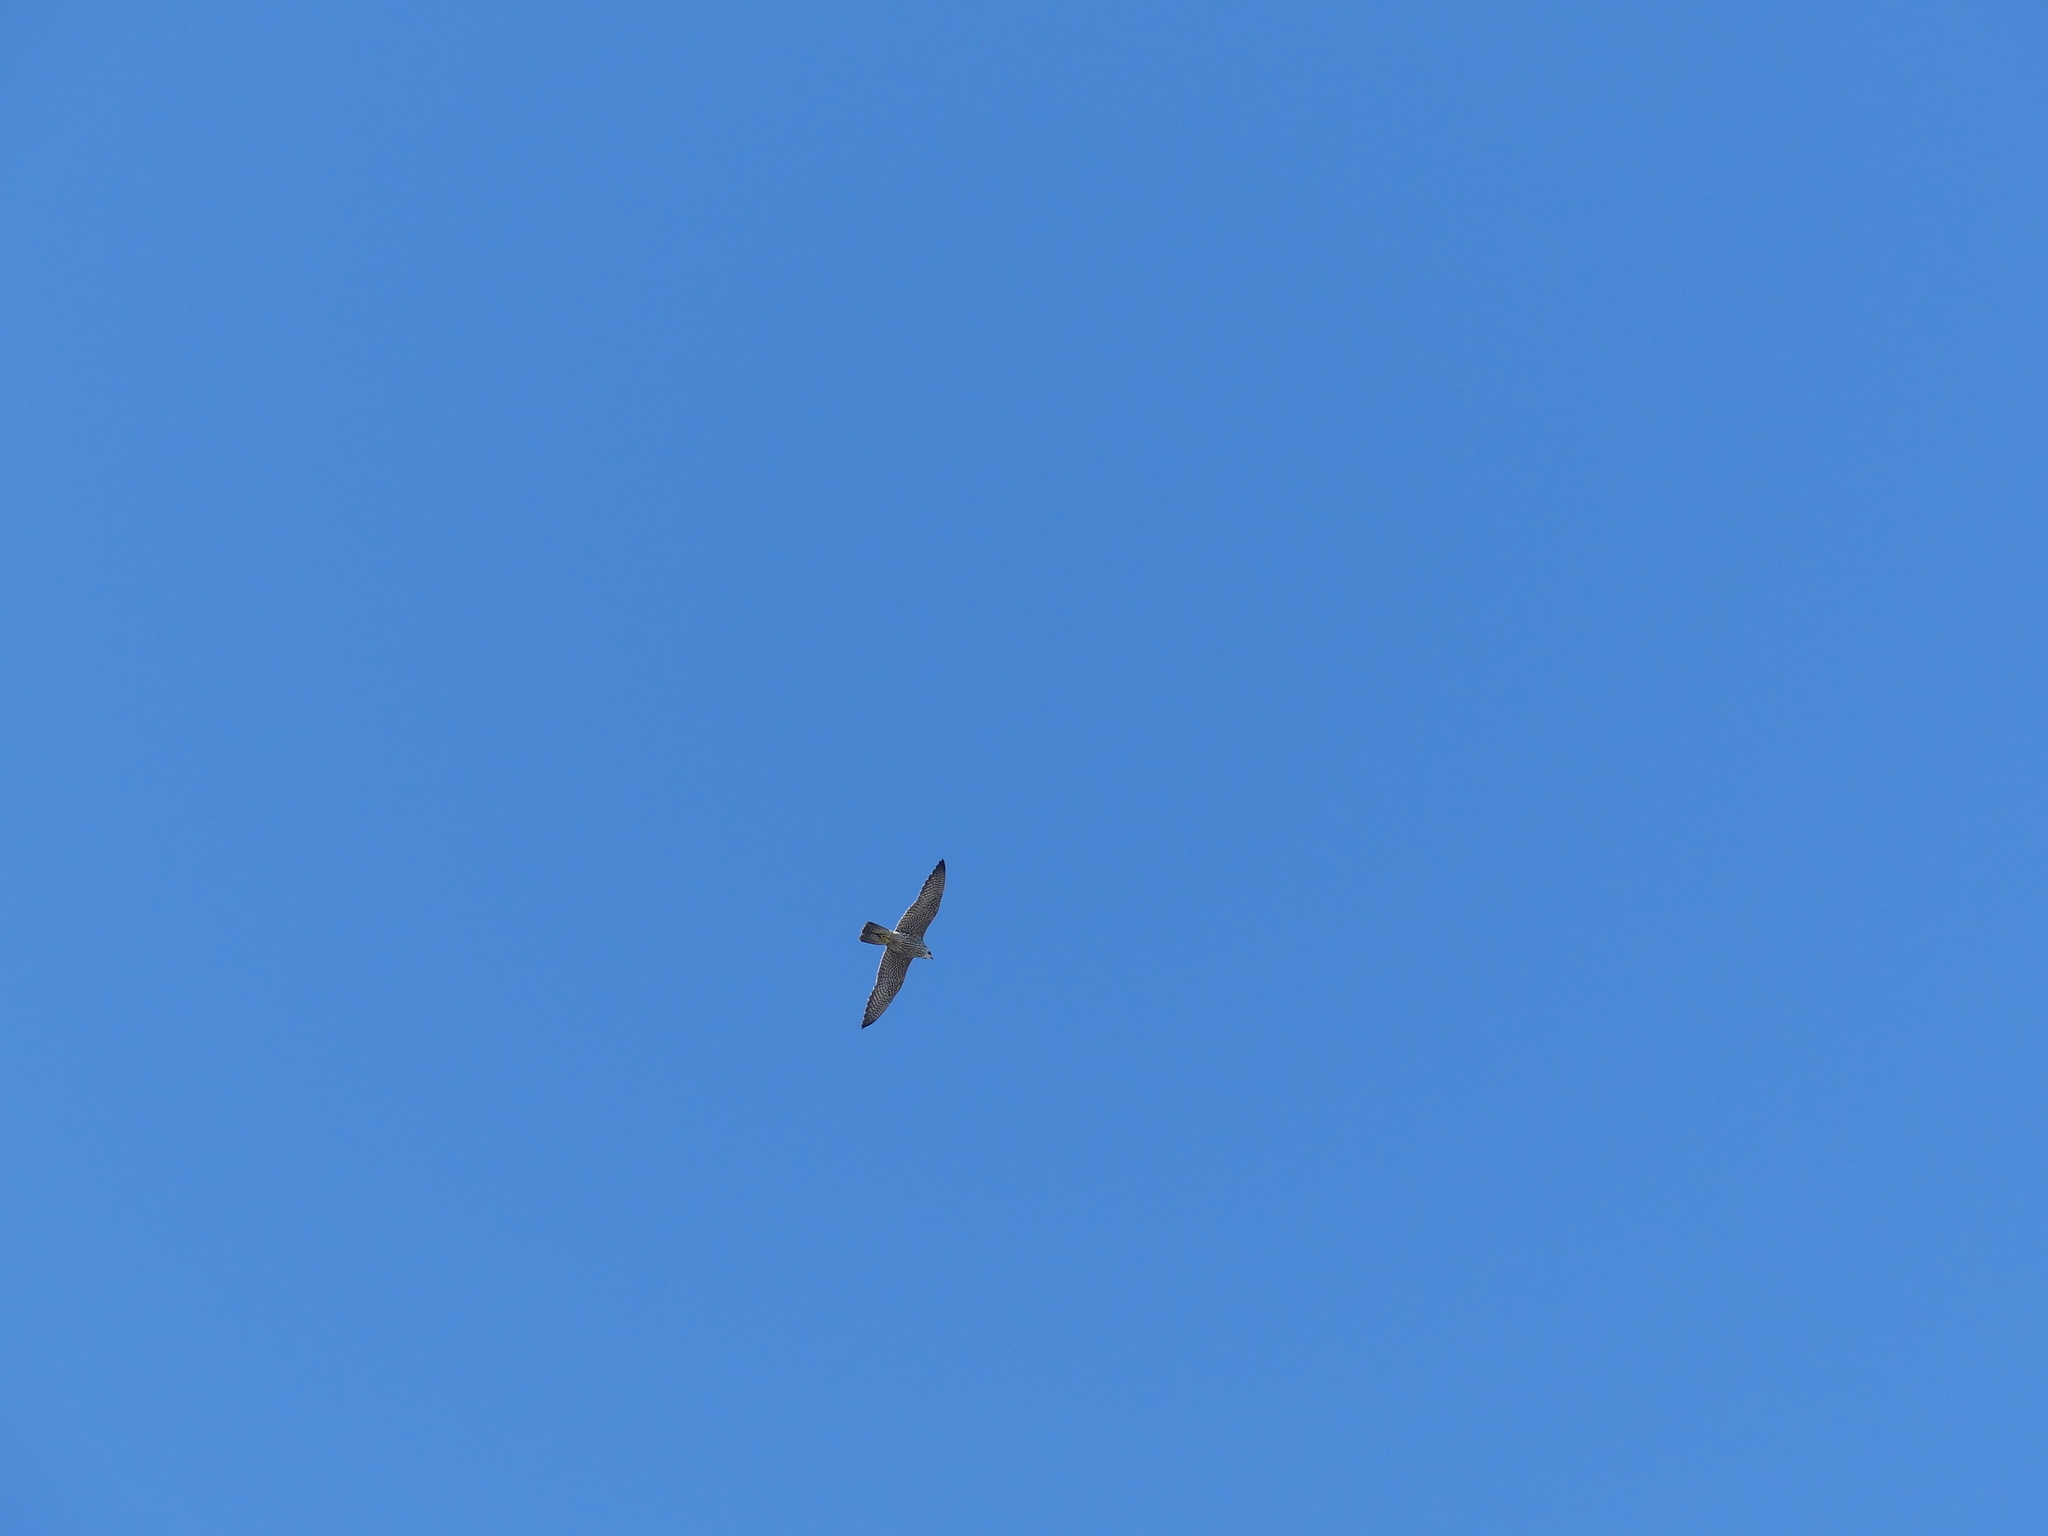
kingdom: Animalia
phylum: Chordata
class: Aves
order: Falconiformes
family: Falconidae
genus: Falco
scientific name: Falco peregrinus
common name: Peregrine falcon
